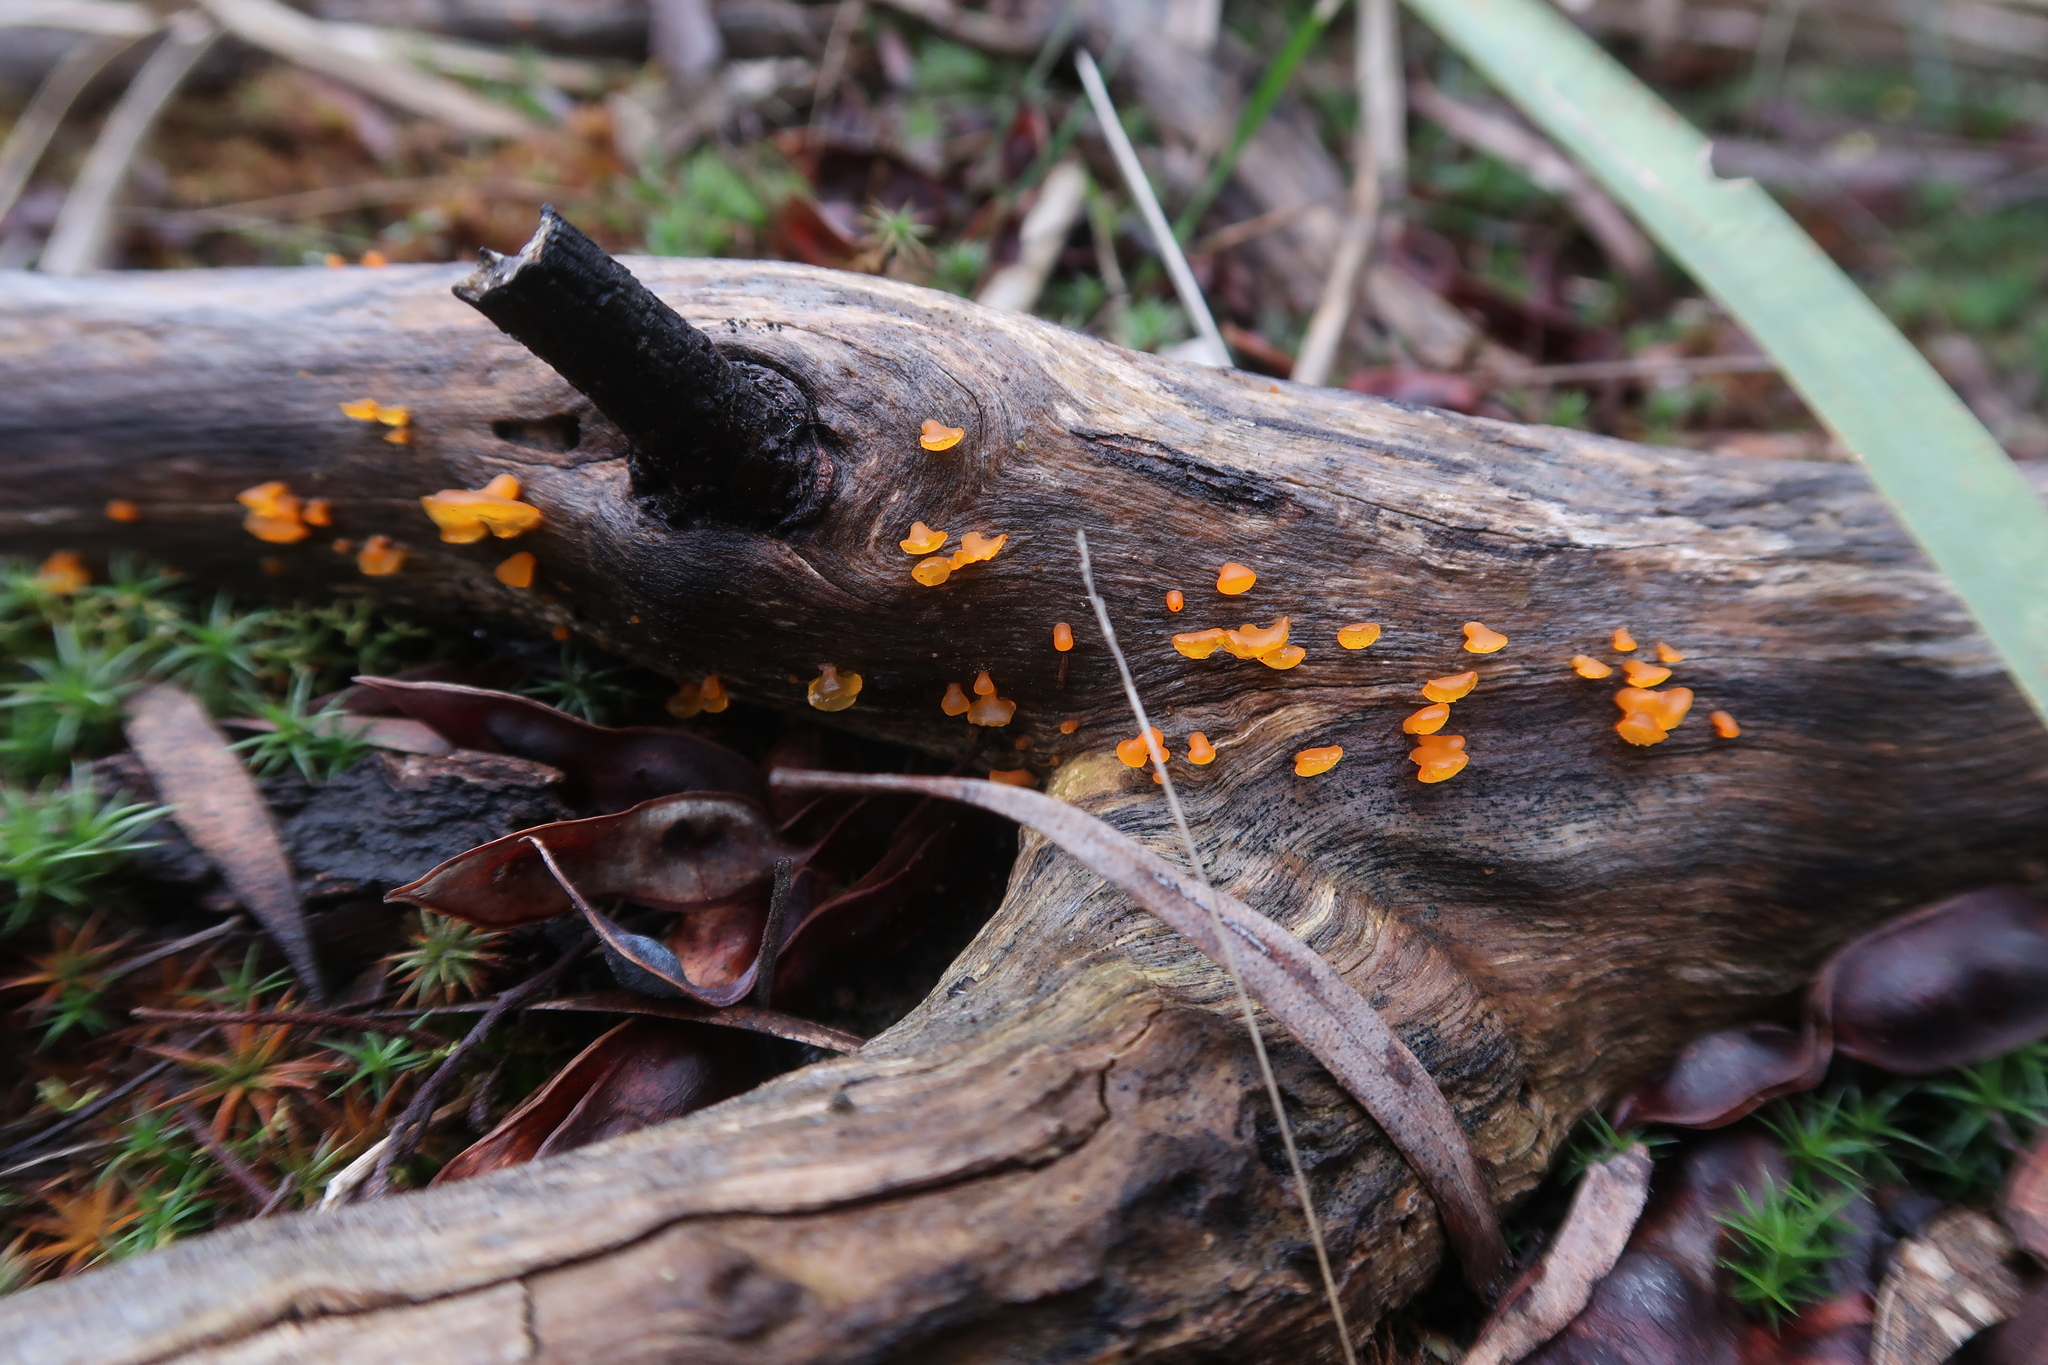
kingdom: Fungi
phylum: Basidiomycota
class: Dacrymycetes
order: Dacrymycetales
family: Dacrymycetaceae
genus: Heterotextus
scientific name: Heterotextus peziziformis
